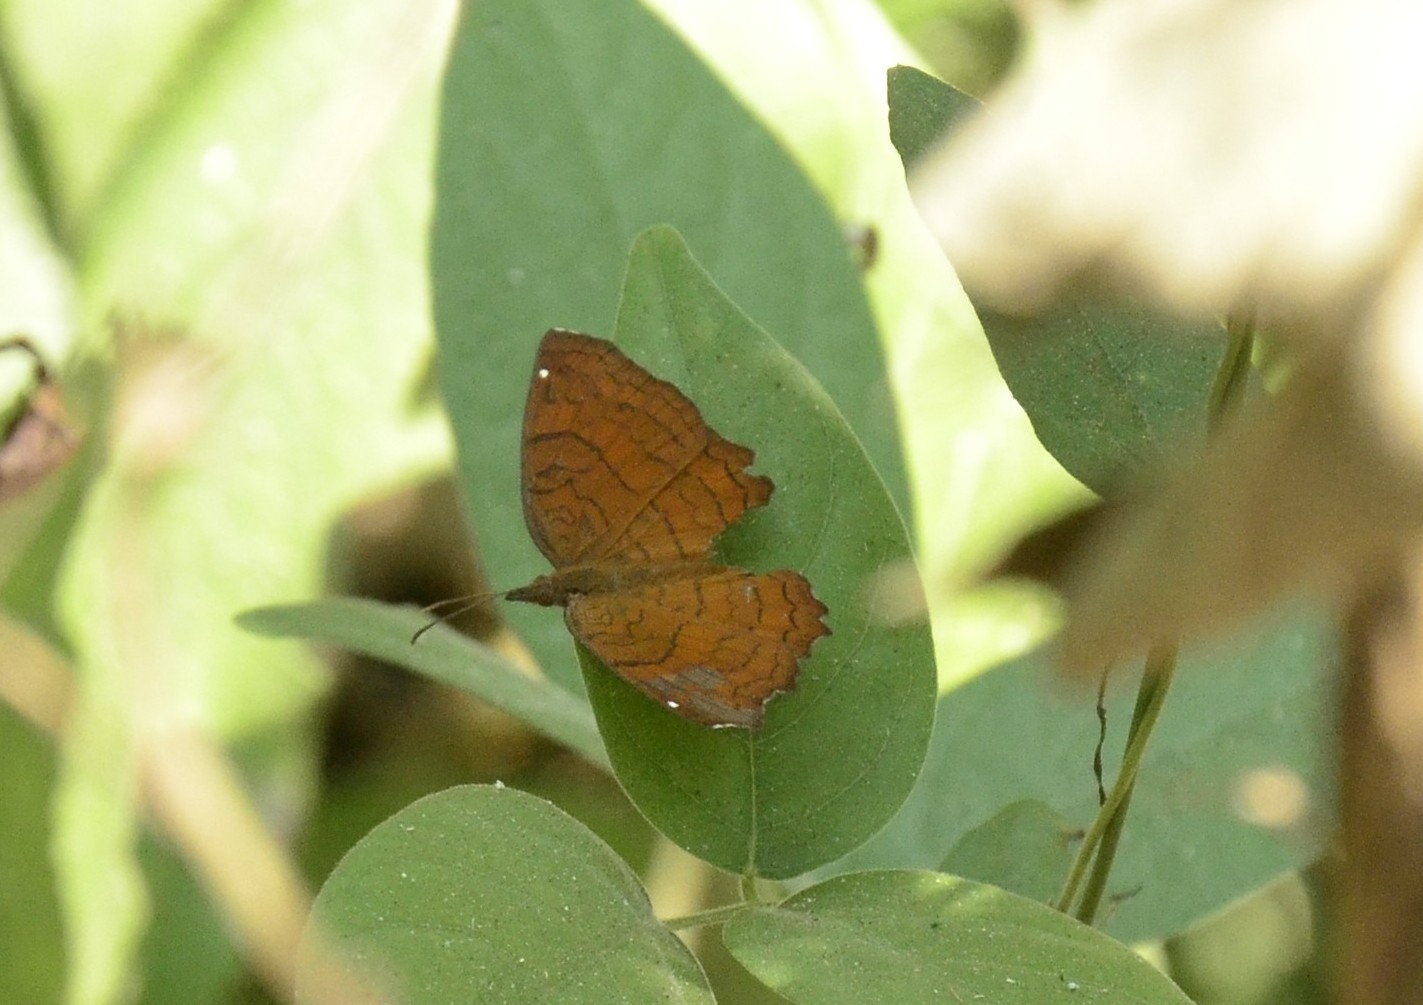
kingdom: Animalia
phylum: Arthropoda
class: Insecta
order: Lepidoptera
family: Nymphalidae
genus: Ariadne
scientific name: Ariadne ariadne
